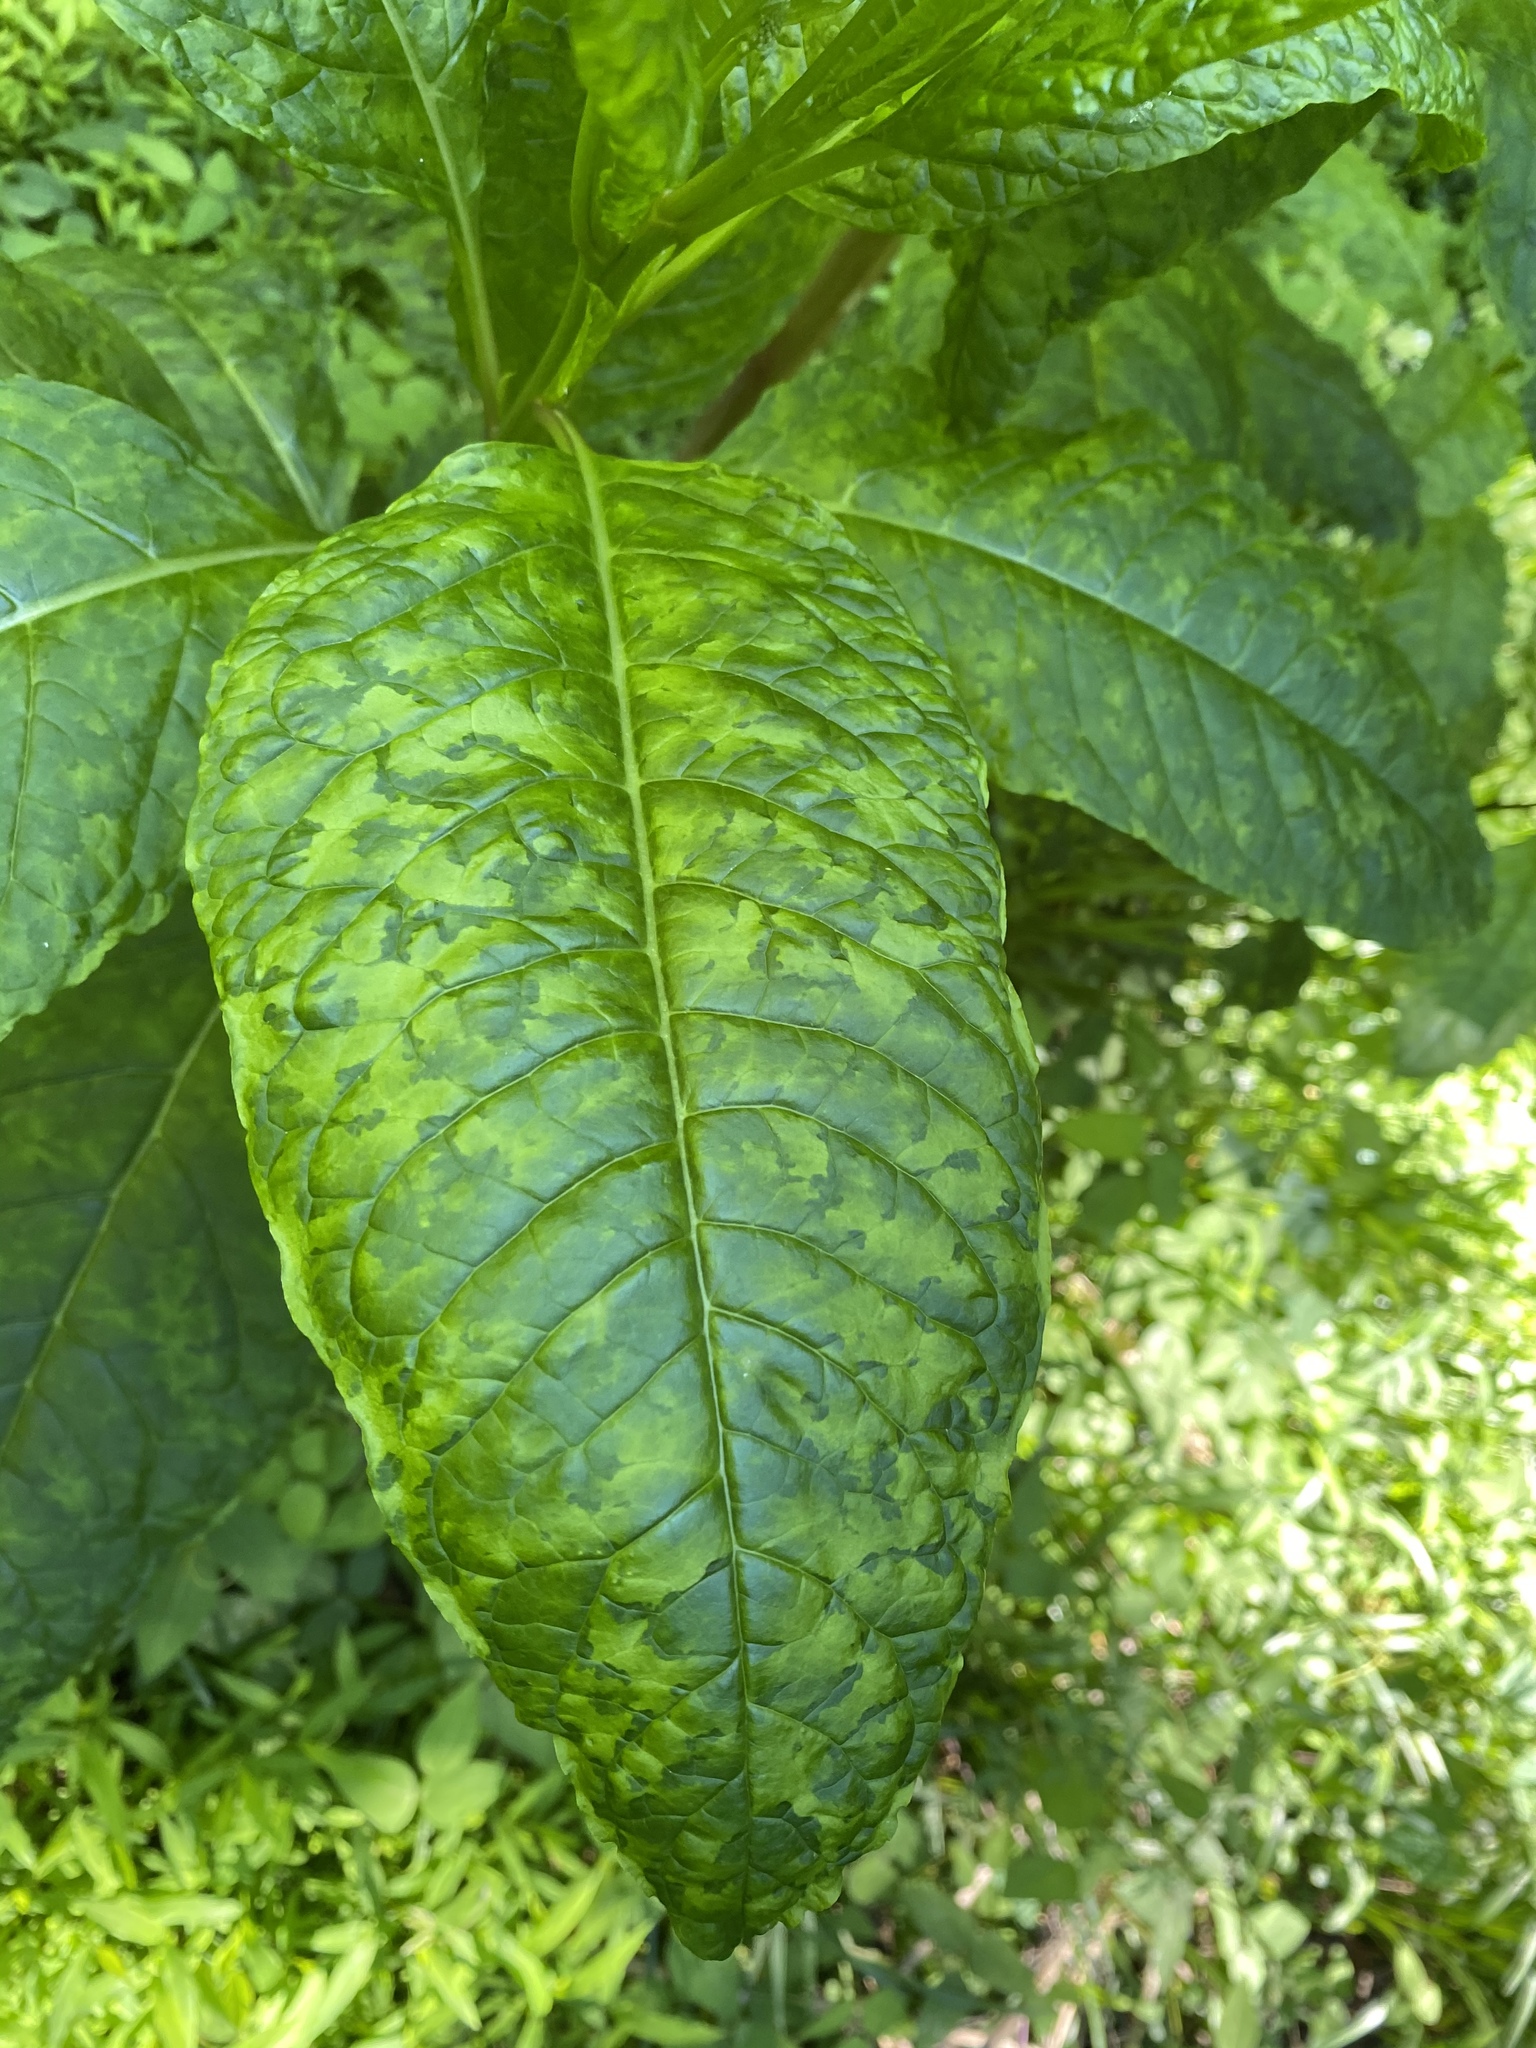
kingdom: Viruses
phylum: Pisuviricota
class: Stelpaviricetes
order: Patatavirales
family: Potyviridae
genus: Potyvirus
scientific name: Potyvirus Pokeweed mosaic virus
